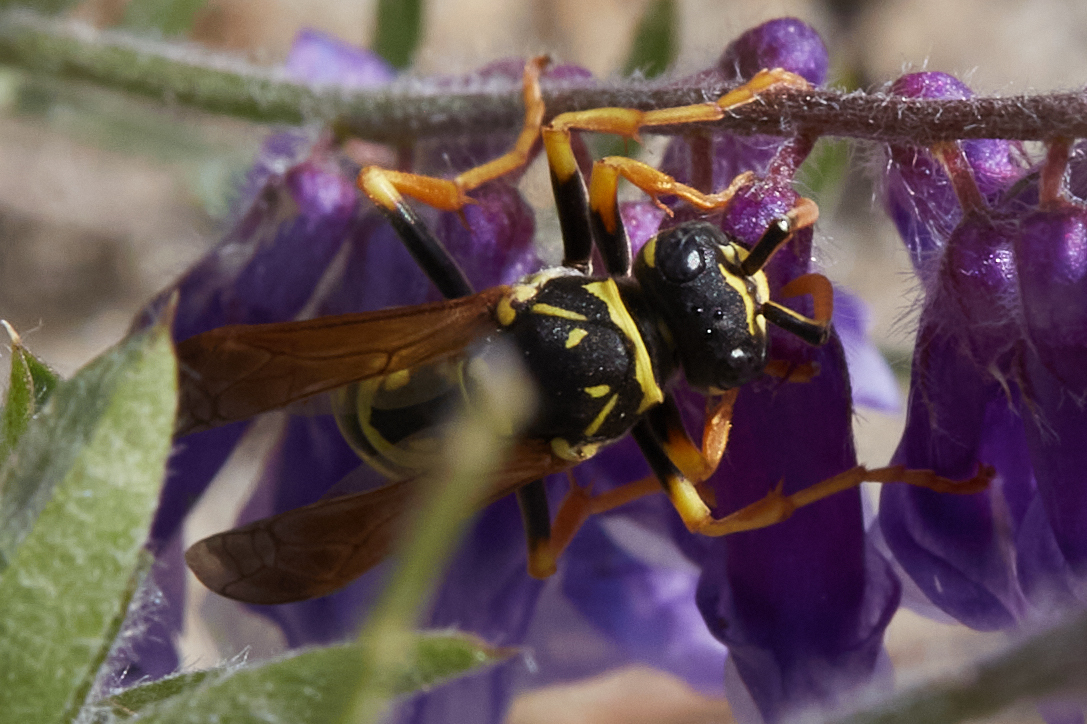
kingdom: Animalia
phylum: Arthropoda
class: Insecta
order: Hymenoptera
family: Eumenidae
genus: Polistes
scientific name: Polistes dominula
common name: Paper wasp
